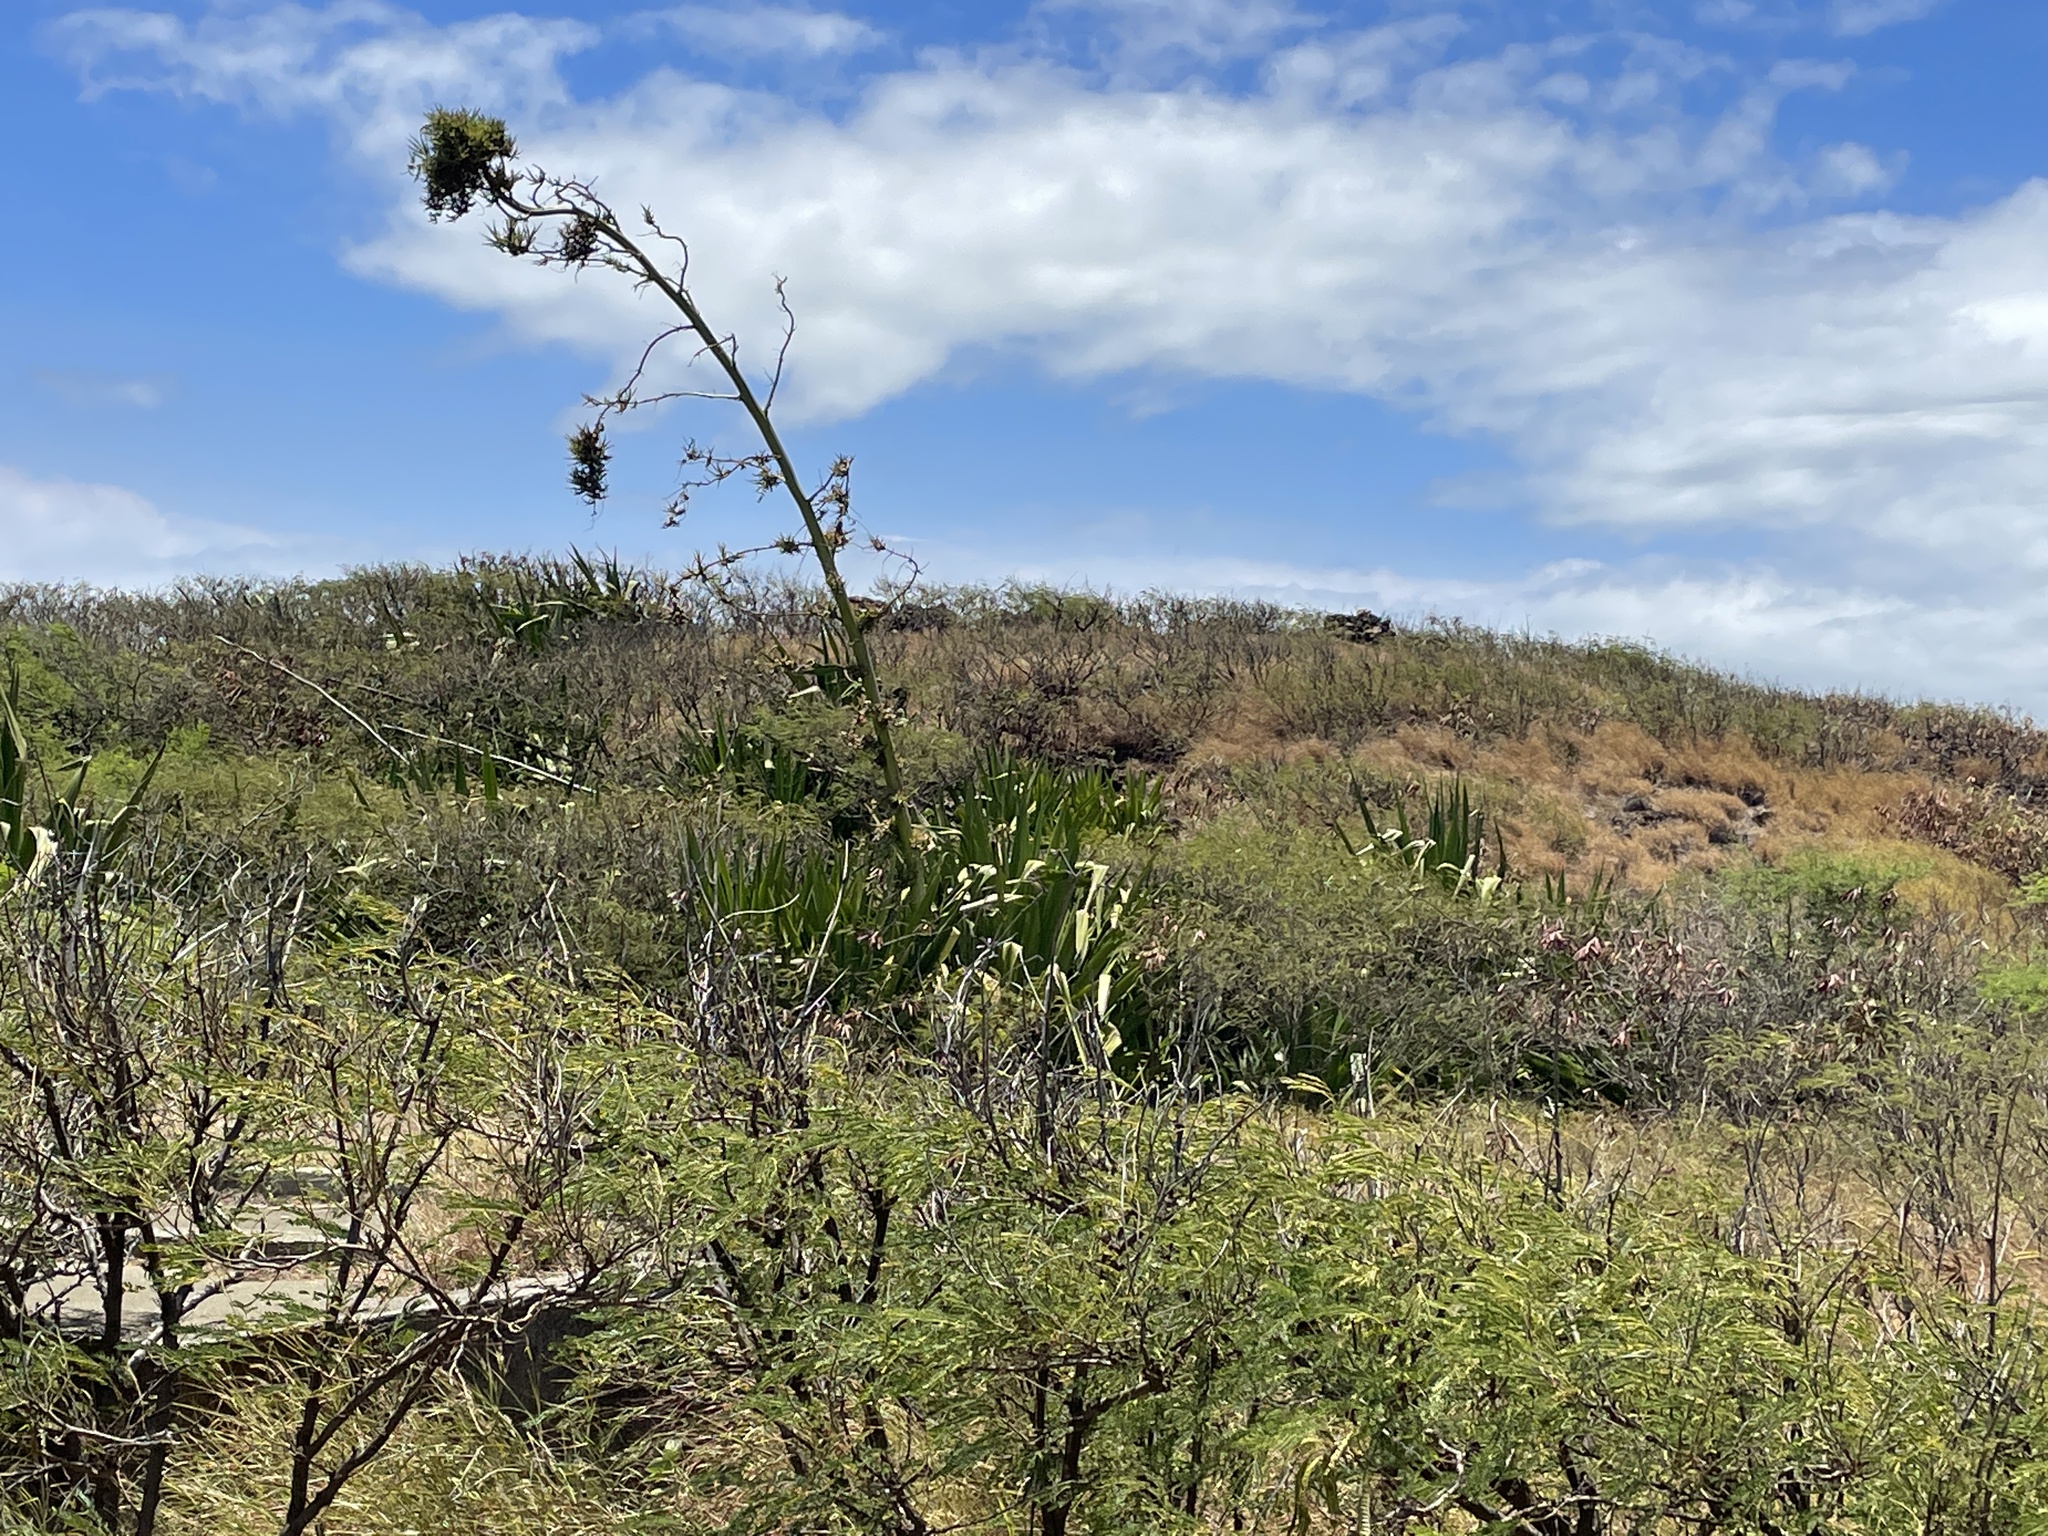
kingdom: Plantae
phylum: Tracheophyta
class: Liliopsida
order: Asparagales
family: Asparagaceae
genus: Furcraea
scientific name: Furcraea foetida
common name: Mauritius hemp
